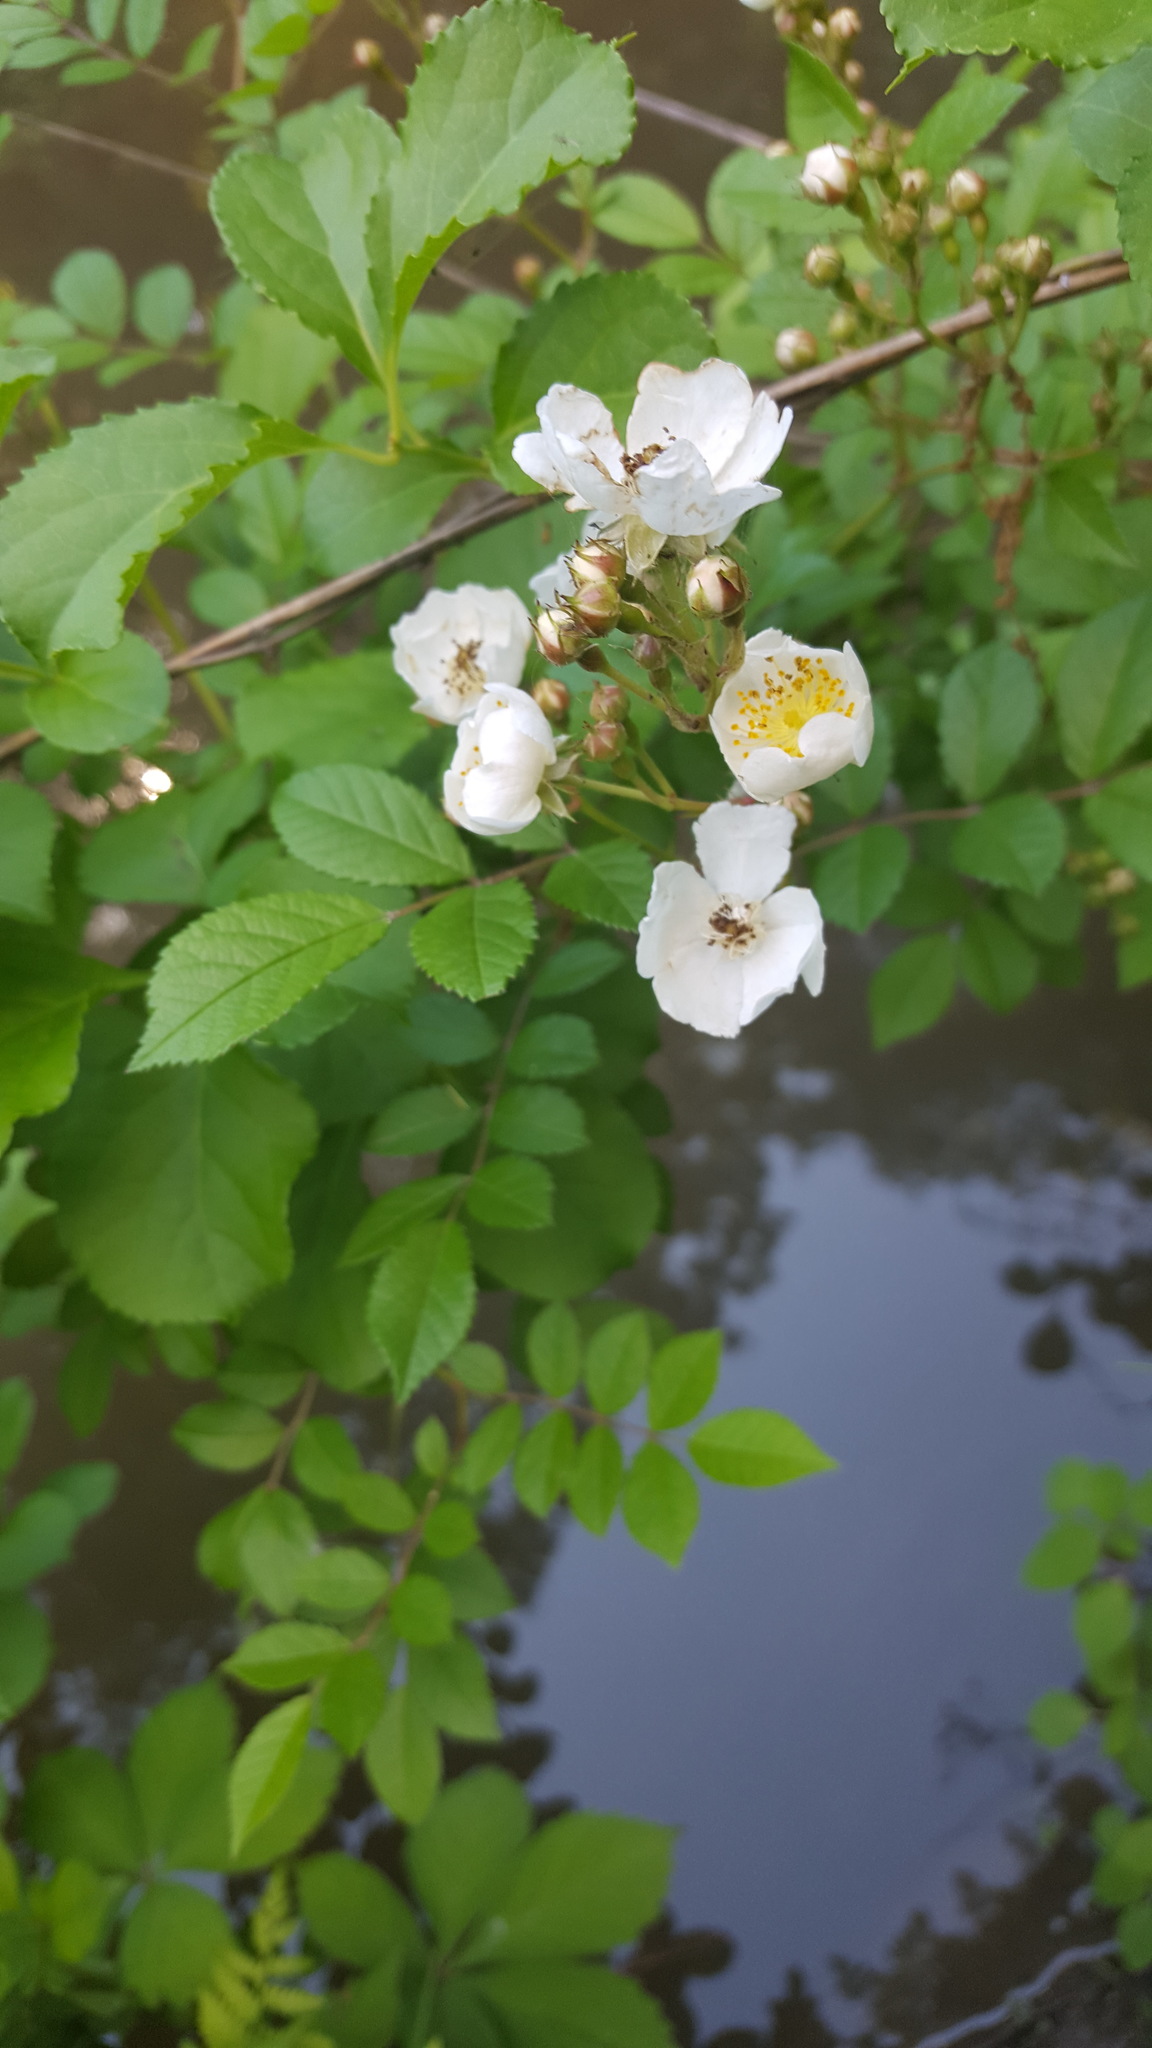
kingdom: Plantae
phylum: Tracheophyta
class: Magnoliopsida
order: Rosales
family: Rosaceae
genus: Rosa
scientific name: Rosa multiflora
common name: Multiflora rose
